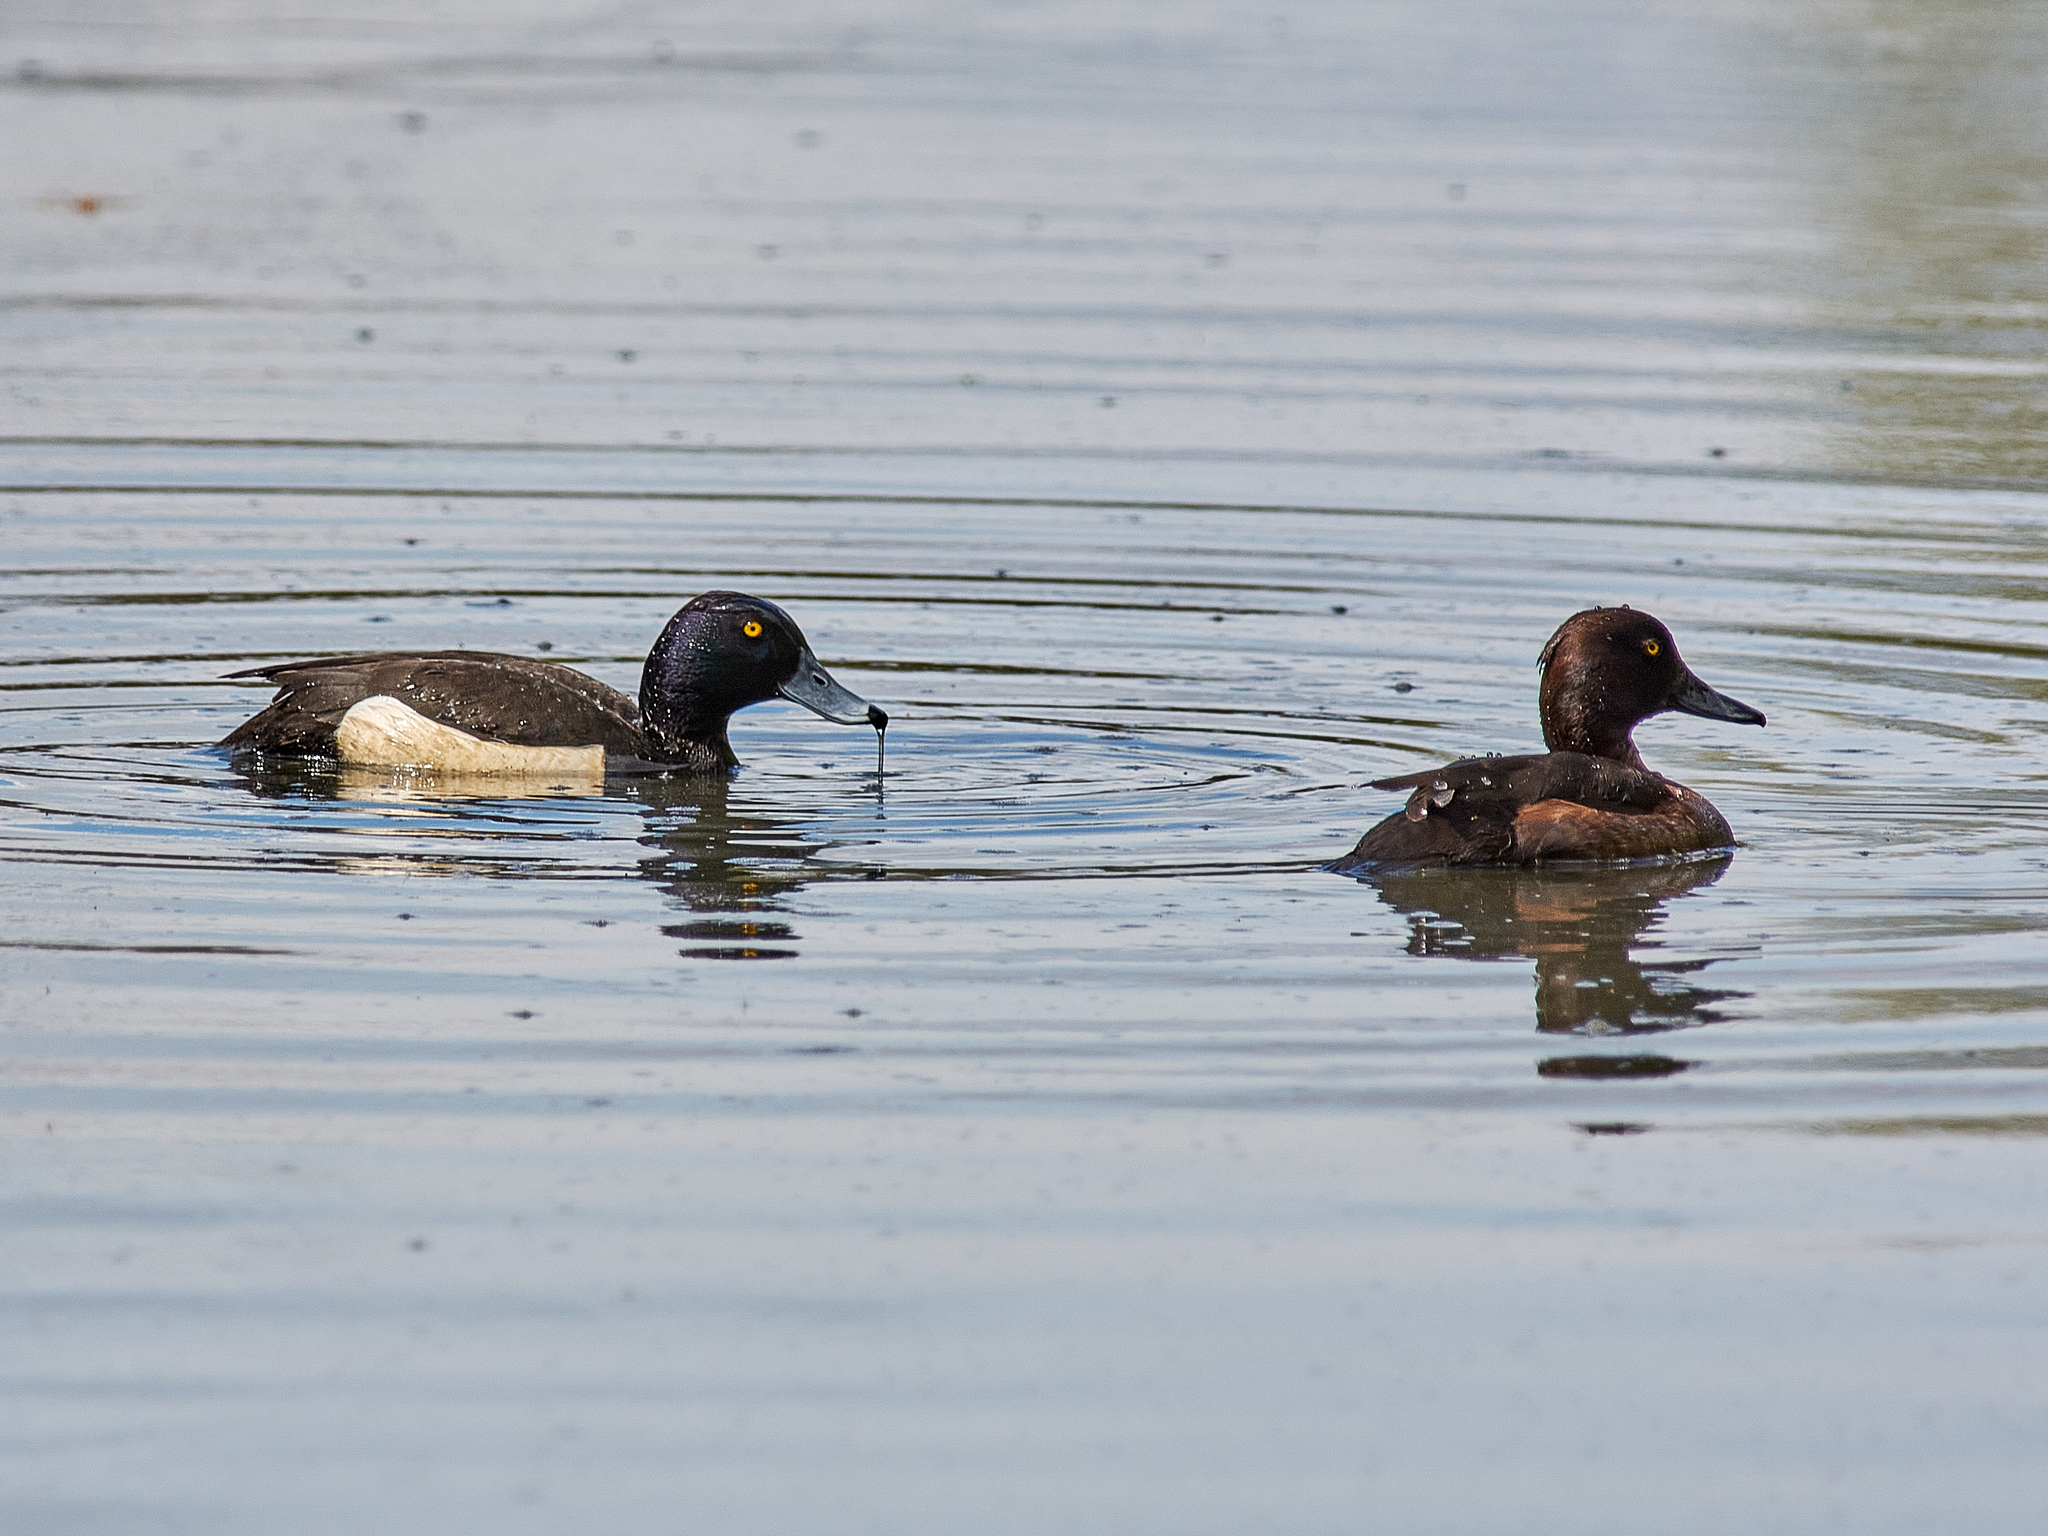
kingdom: Animalia
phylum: Chordata
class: Aves
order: Anseriformes
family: Anatidae
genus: Aythya
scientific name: Aythya fuligula
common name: Tufted duck
